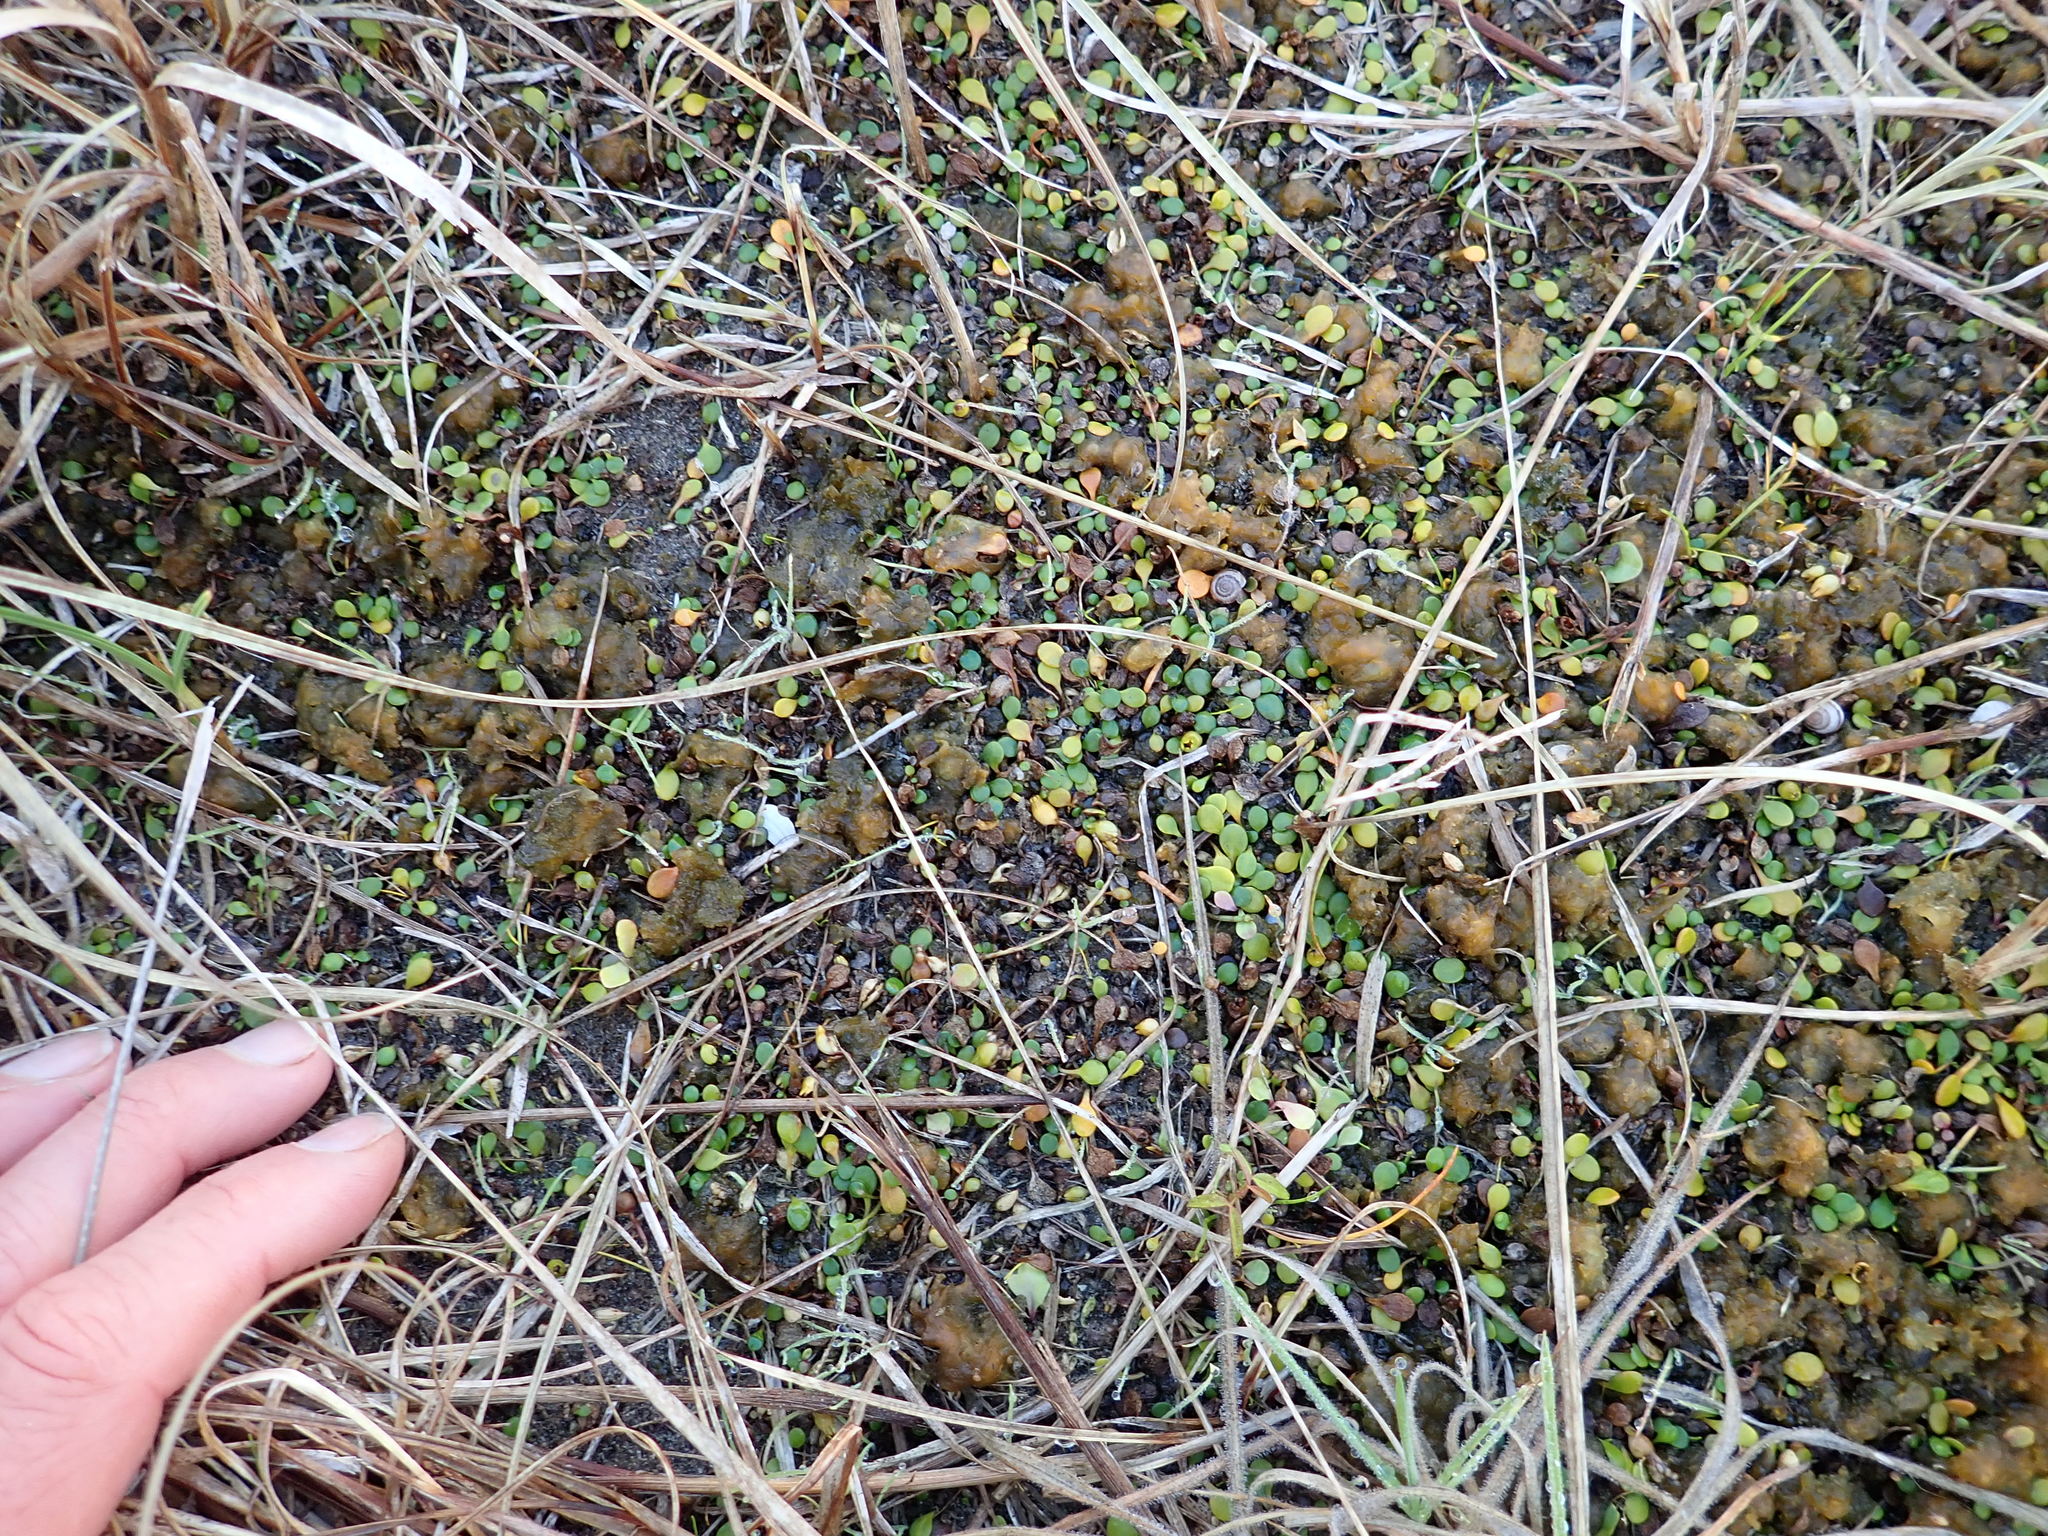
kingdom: Bacteria
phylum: Cyanobacteria
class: Cyanobacteriia
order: Cyanobacteriales
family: Nostocaceae
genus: Nostoc
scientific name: Nostoc commune
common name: Star jelly
